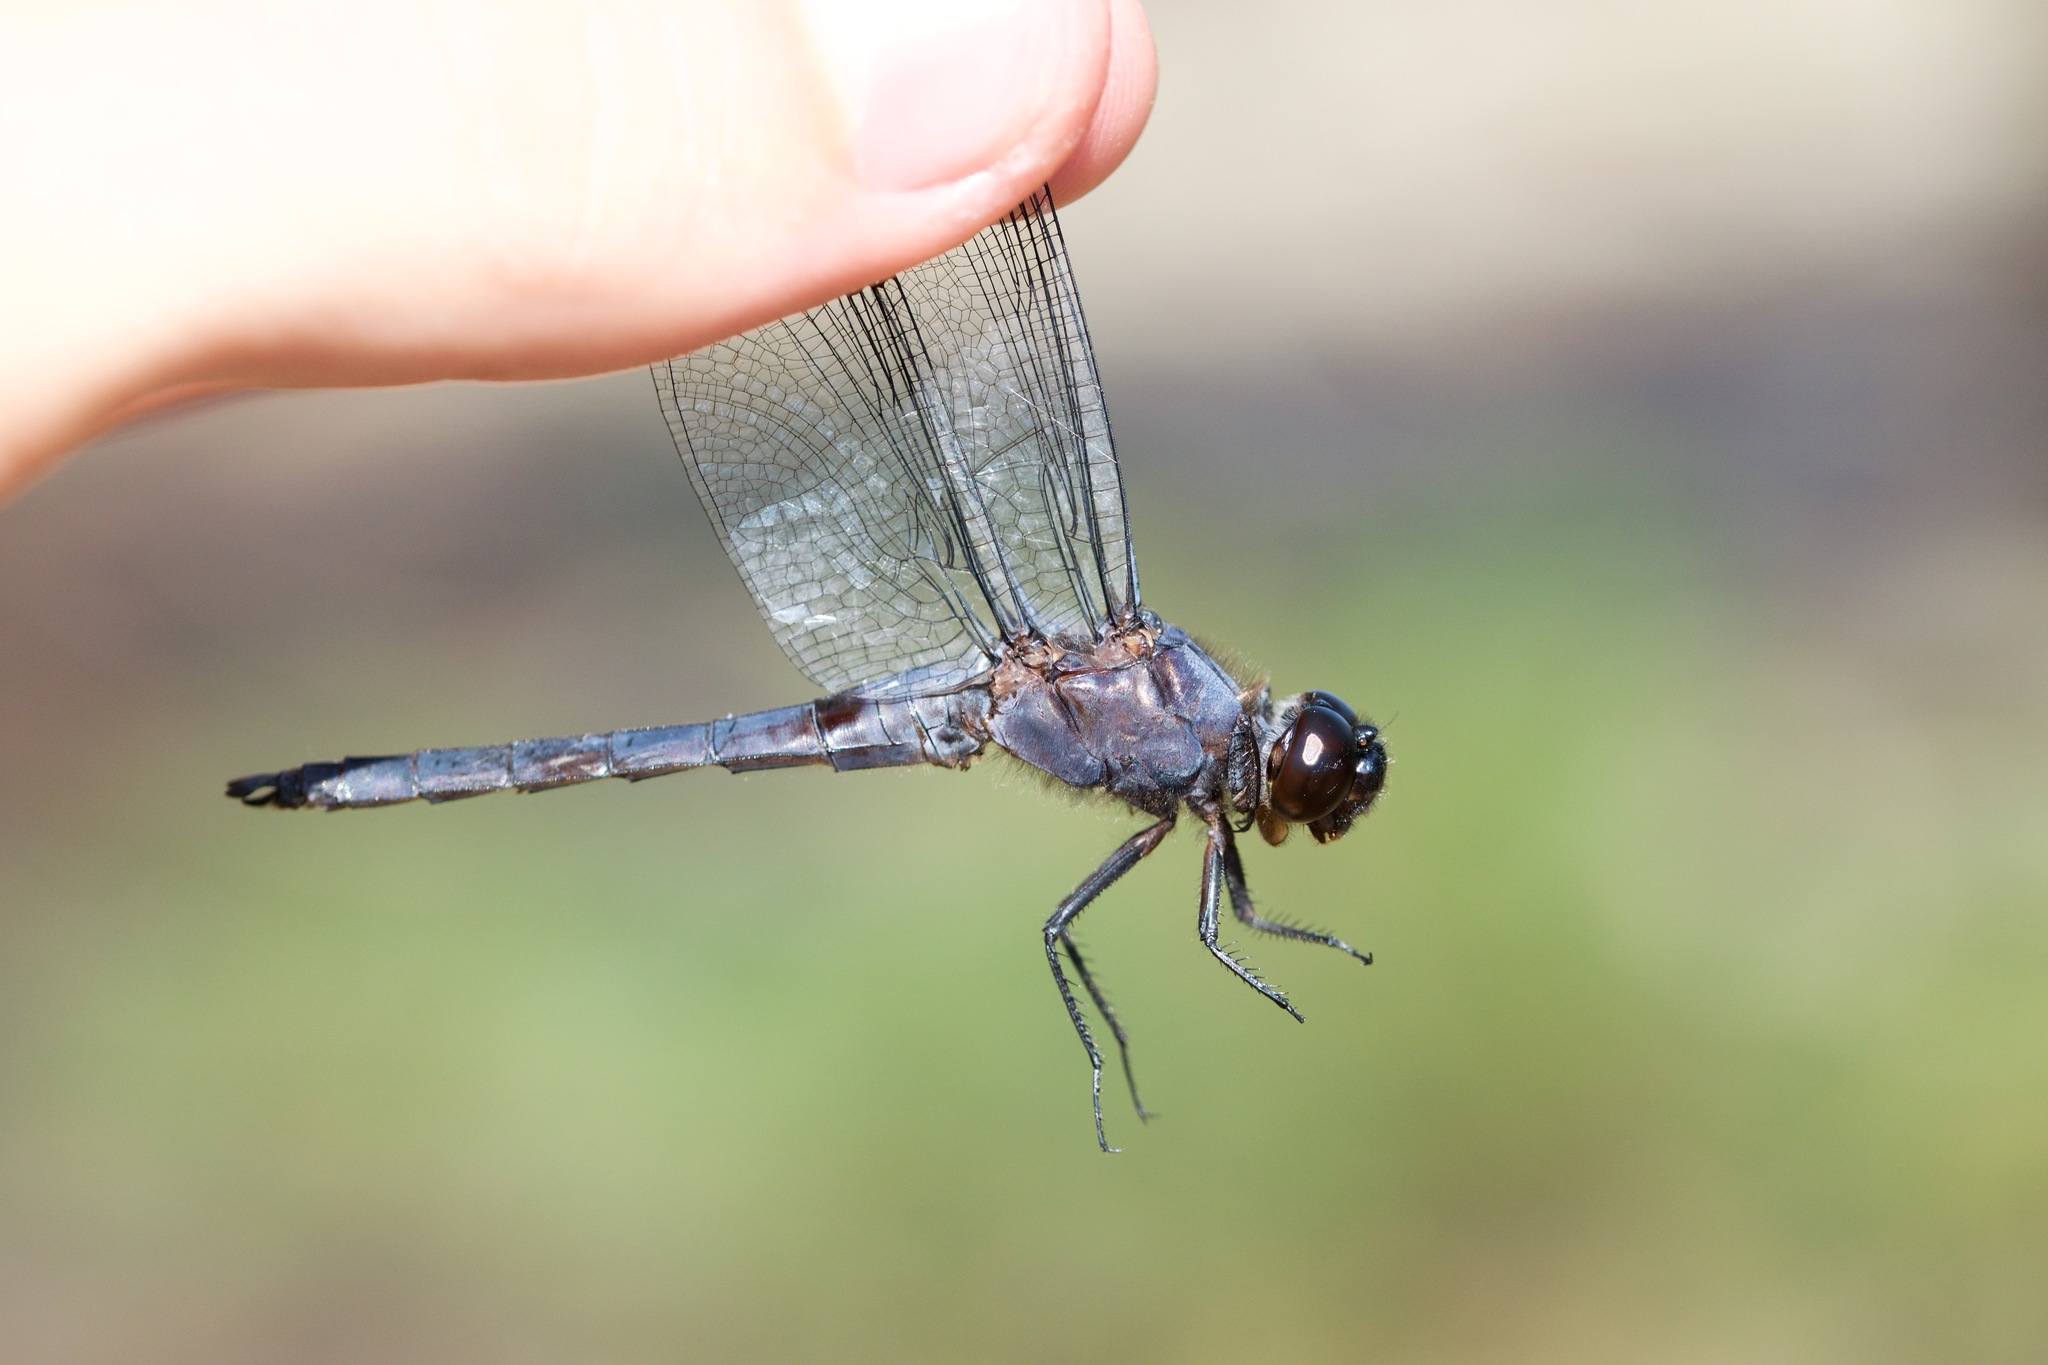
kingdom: Animalia
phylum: Arthropoda
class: Insecta
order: Odonata
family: Libellulidae
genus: Libellula
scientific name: Libellula incesta
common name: Slaty skimmer
